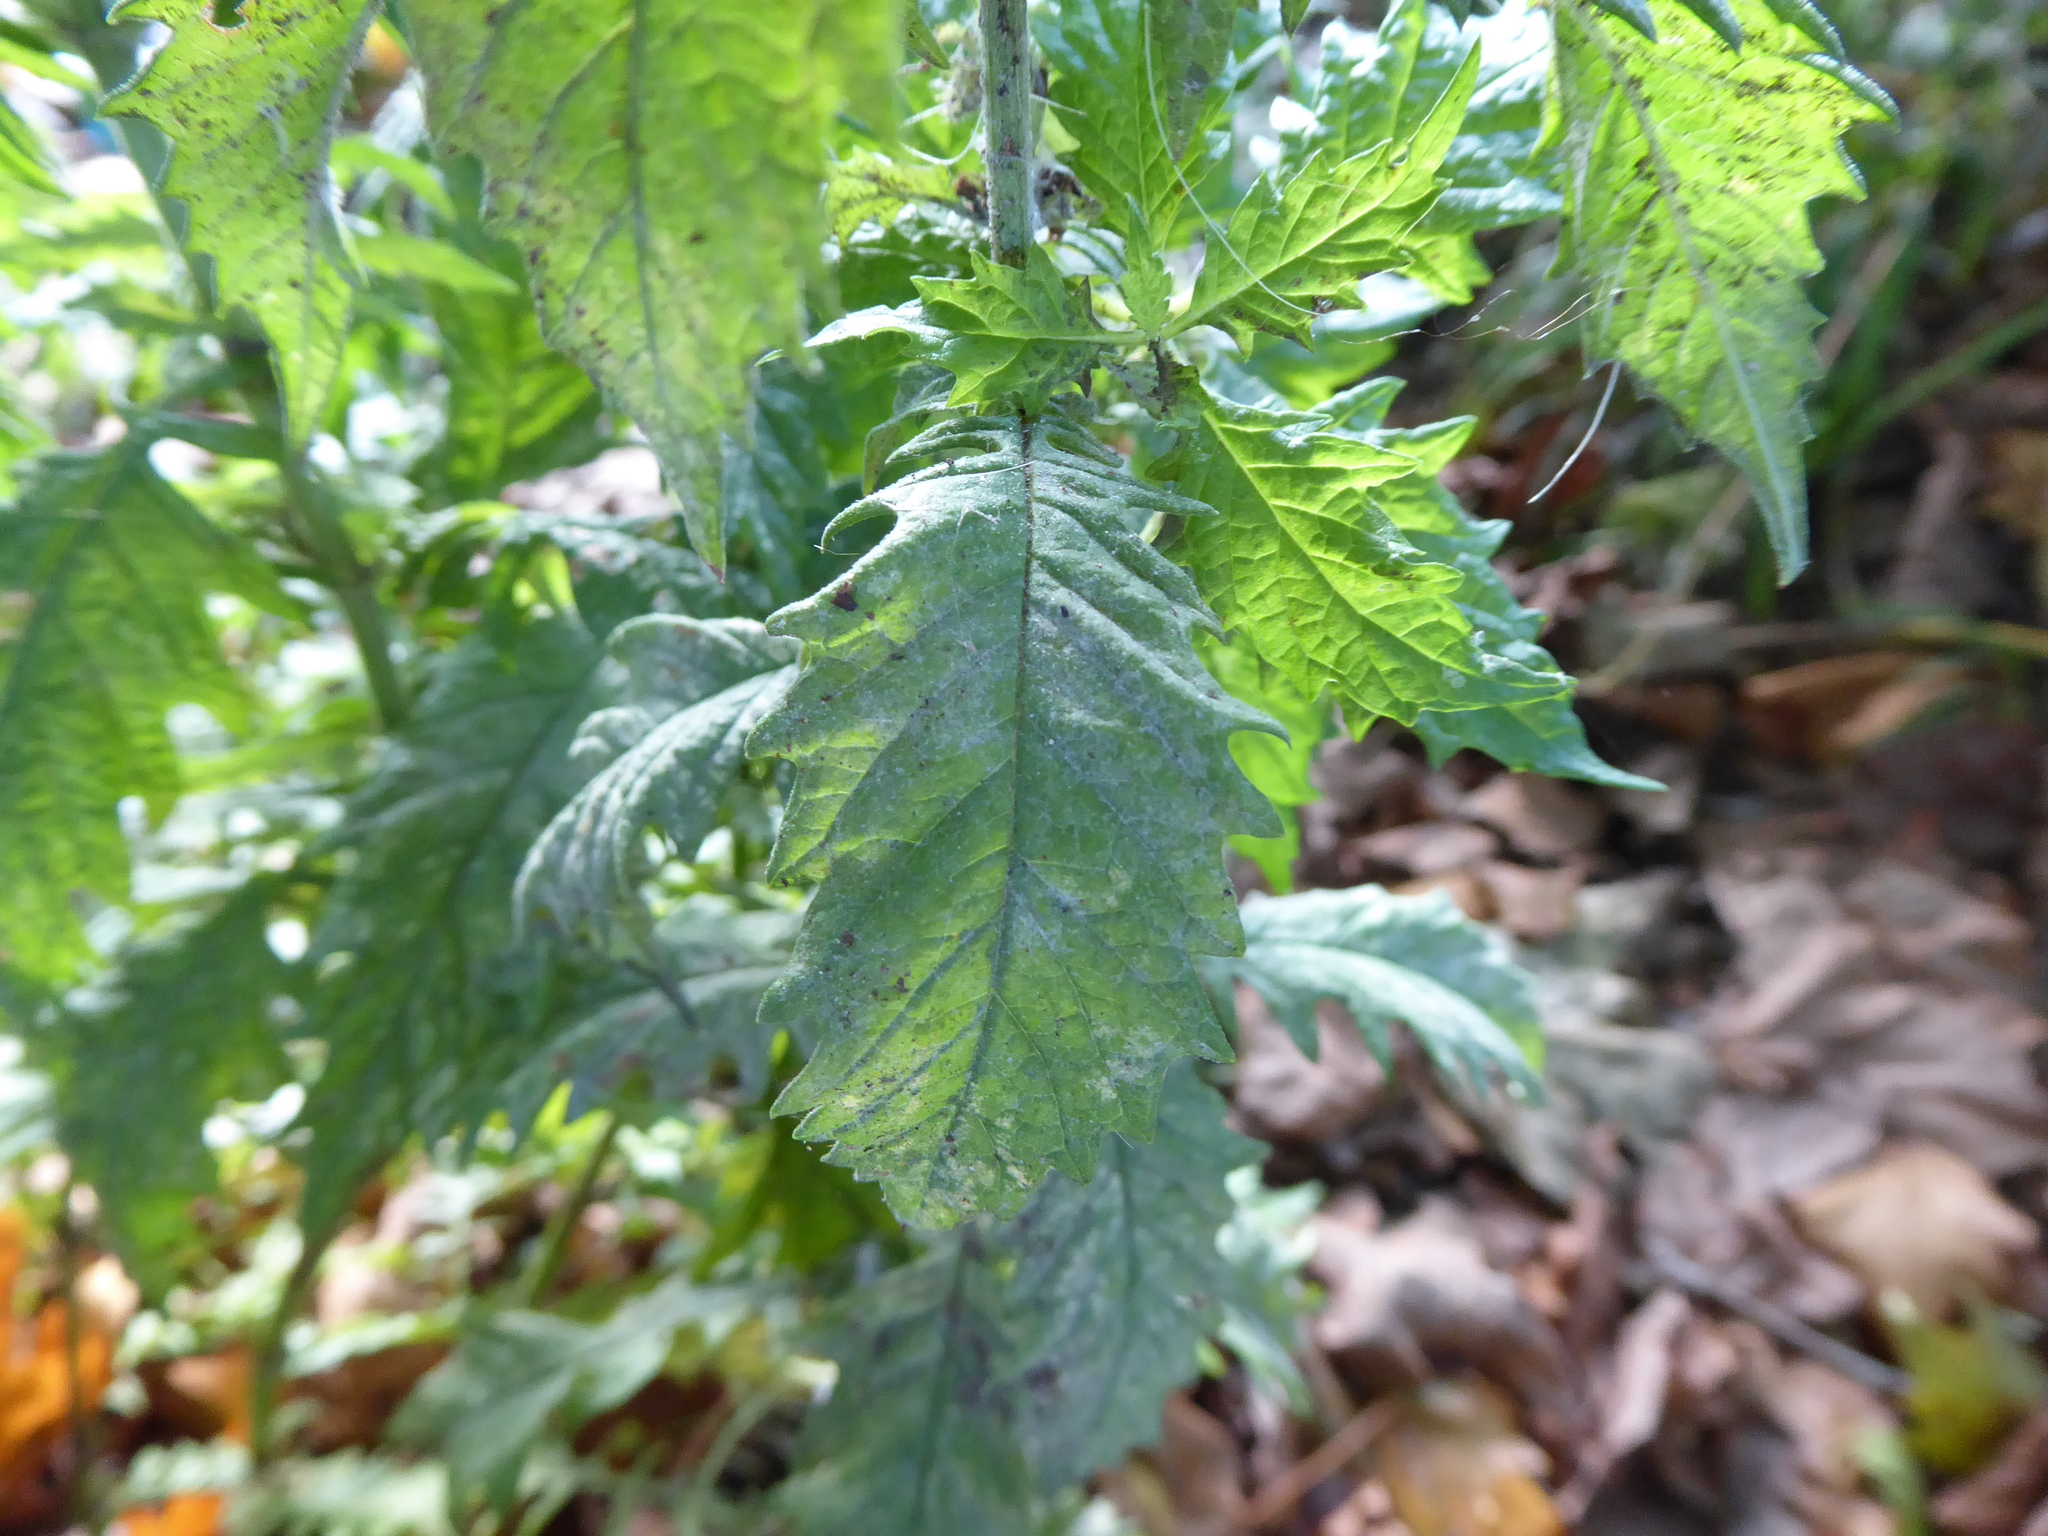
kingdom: Plantae
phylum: Tracheophyta
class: Magnoliopsida
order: Lamiales
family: Lamiaceae
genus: Lycopus
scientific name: Lycopus europaeus
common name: European bugleweed
